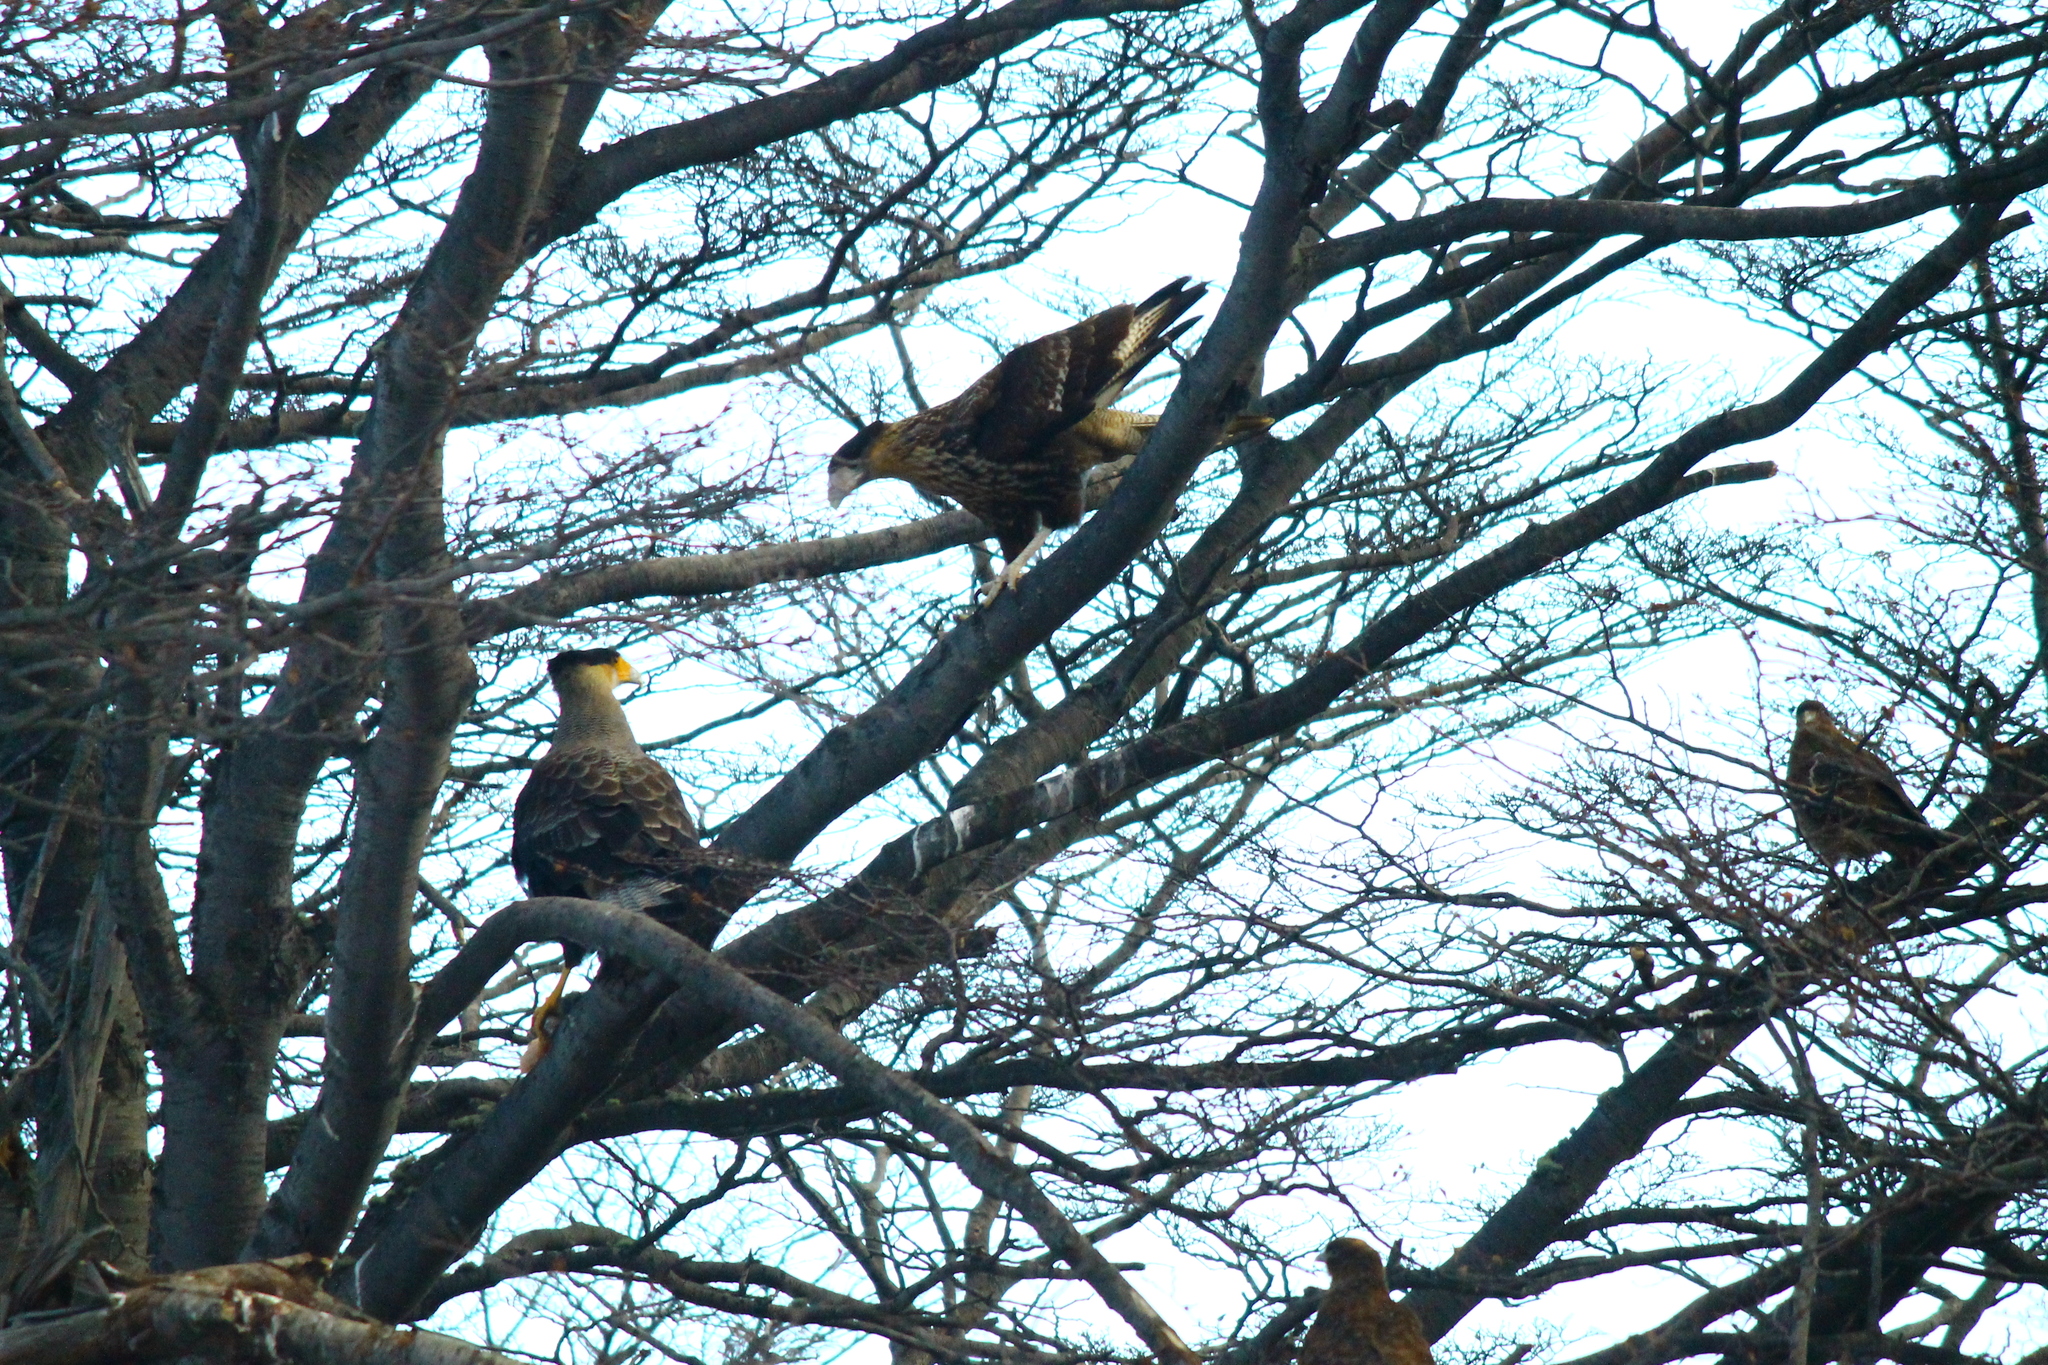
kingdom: Animalia
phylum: Chordata
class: Aves
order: Falconiformes
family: Falconidae
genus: Caracara
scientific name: Caracara plancus
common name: Southern caracara
